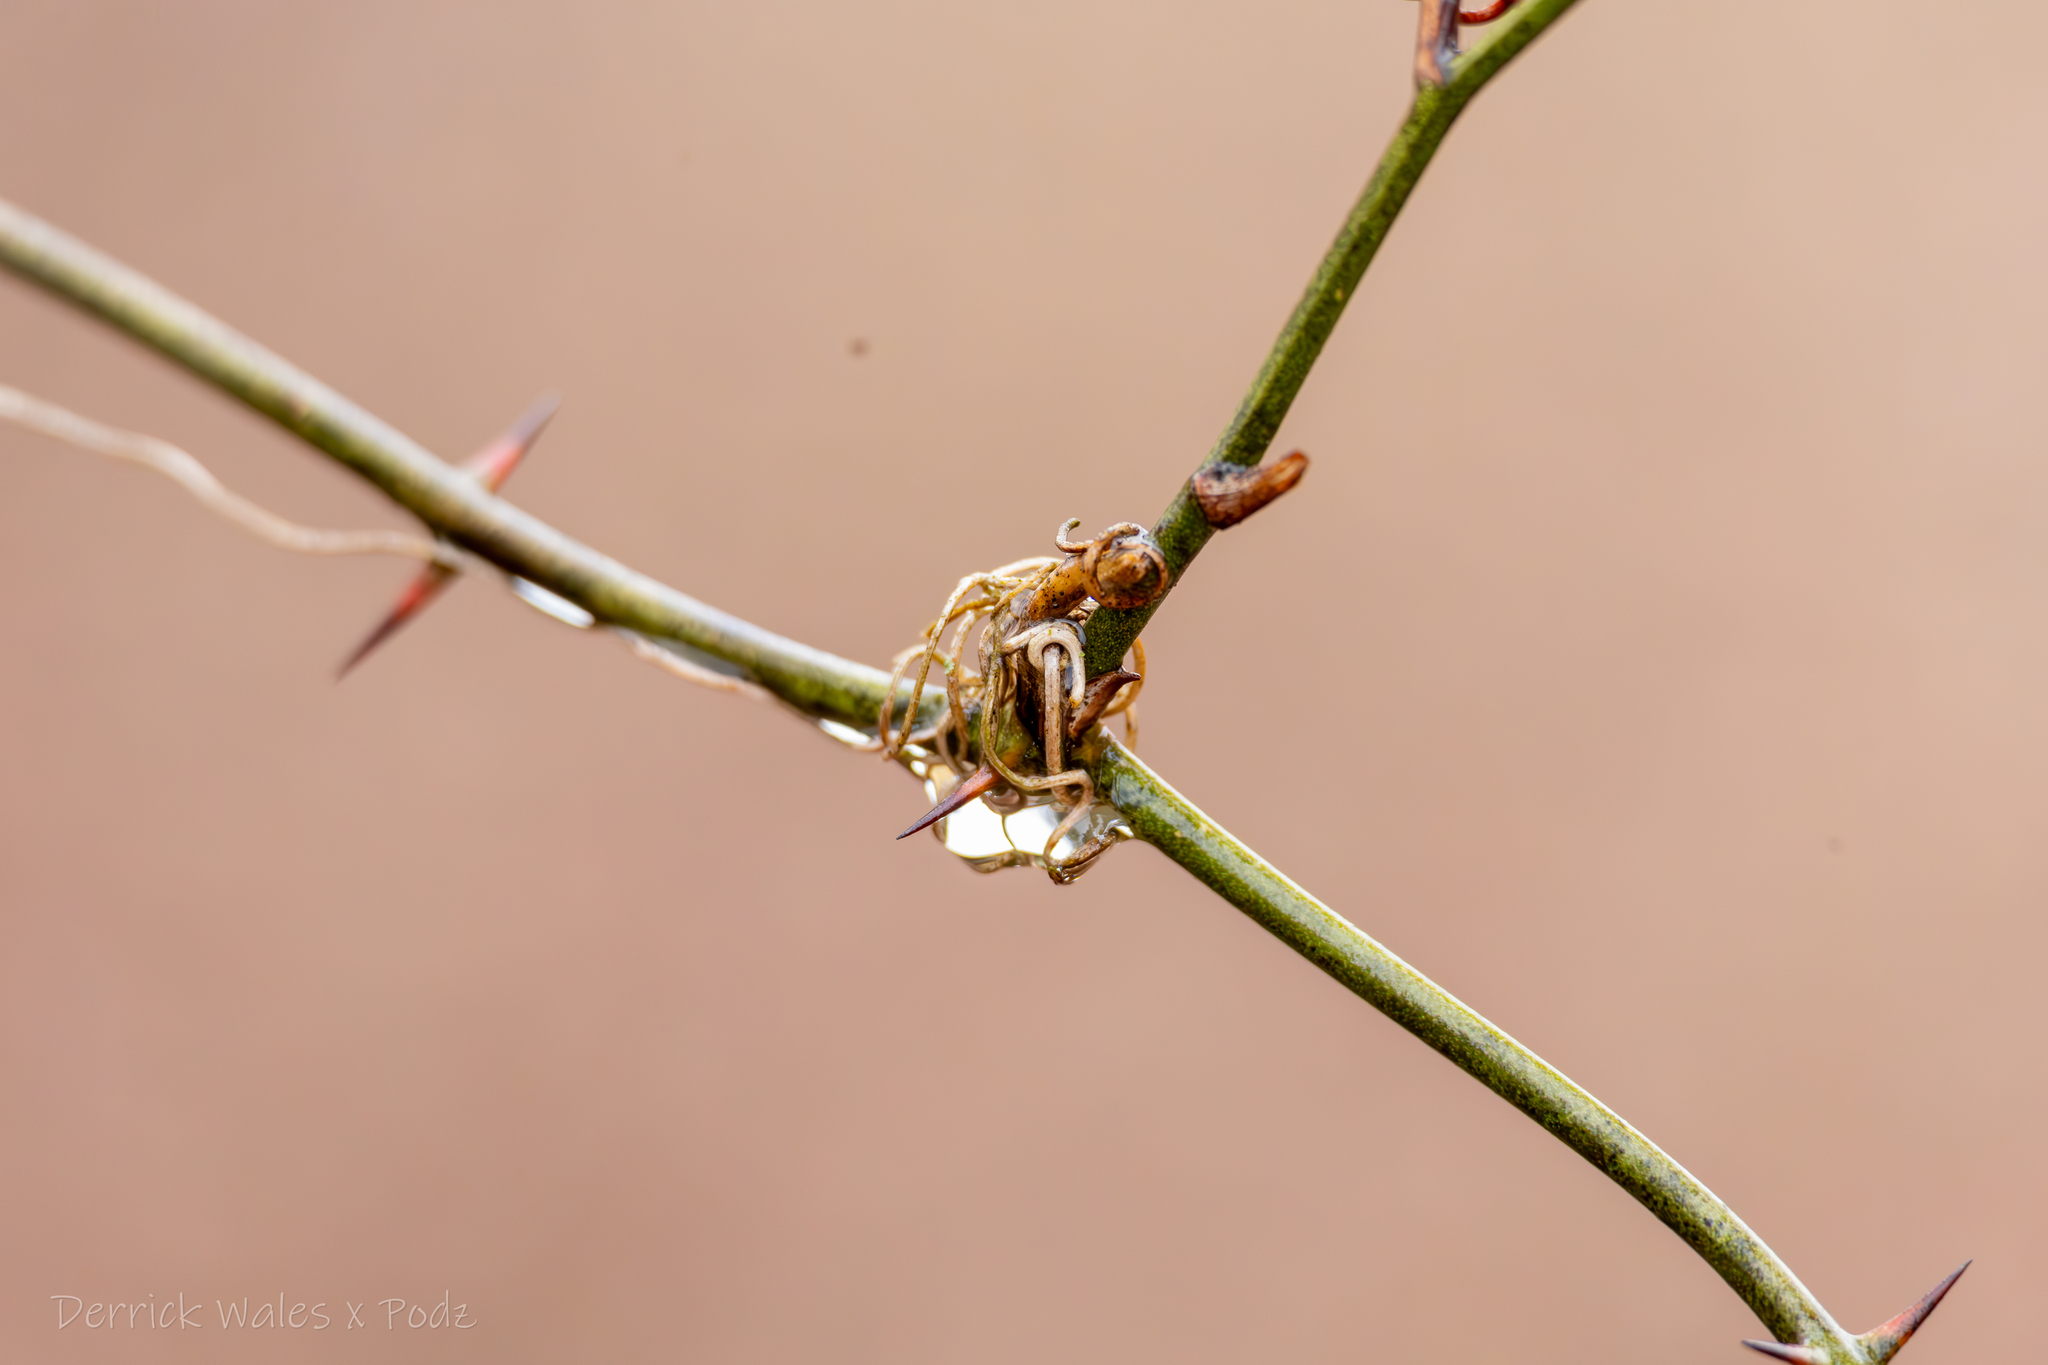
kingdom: Plantae
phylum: Tracheophyta
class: Liliopsida
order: Liliales
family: Smilacaceae
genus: Smilax
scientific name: Smilax rotundifolia
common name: Bullbriar
